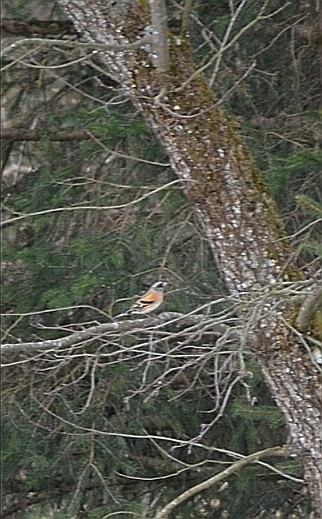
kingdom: Animalia
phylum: Chordata
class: Aves
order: Passeriformes
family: Fringillidae
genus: Fringilla
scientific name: Fringilla montifringilla
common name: Brambling
